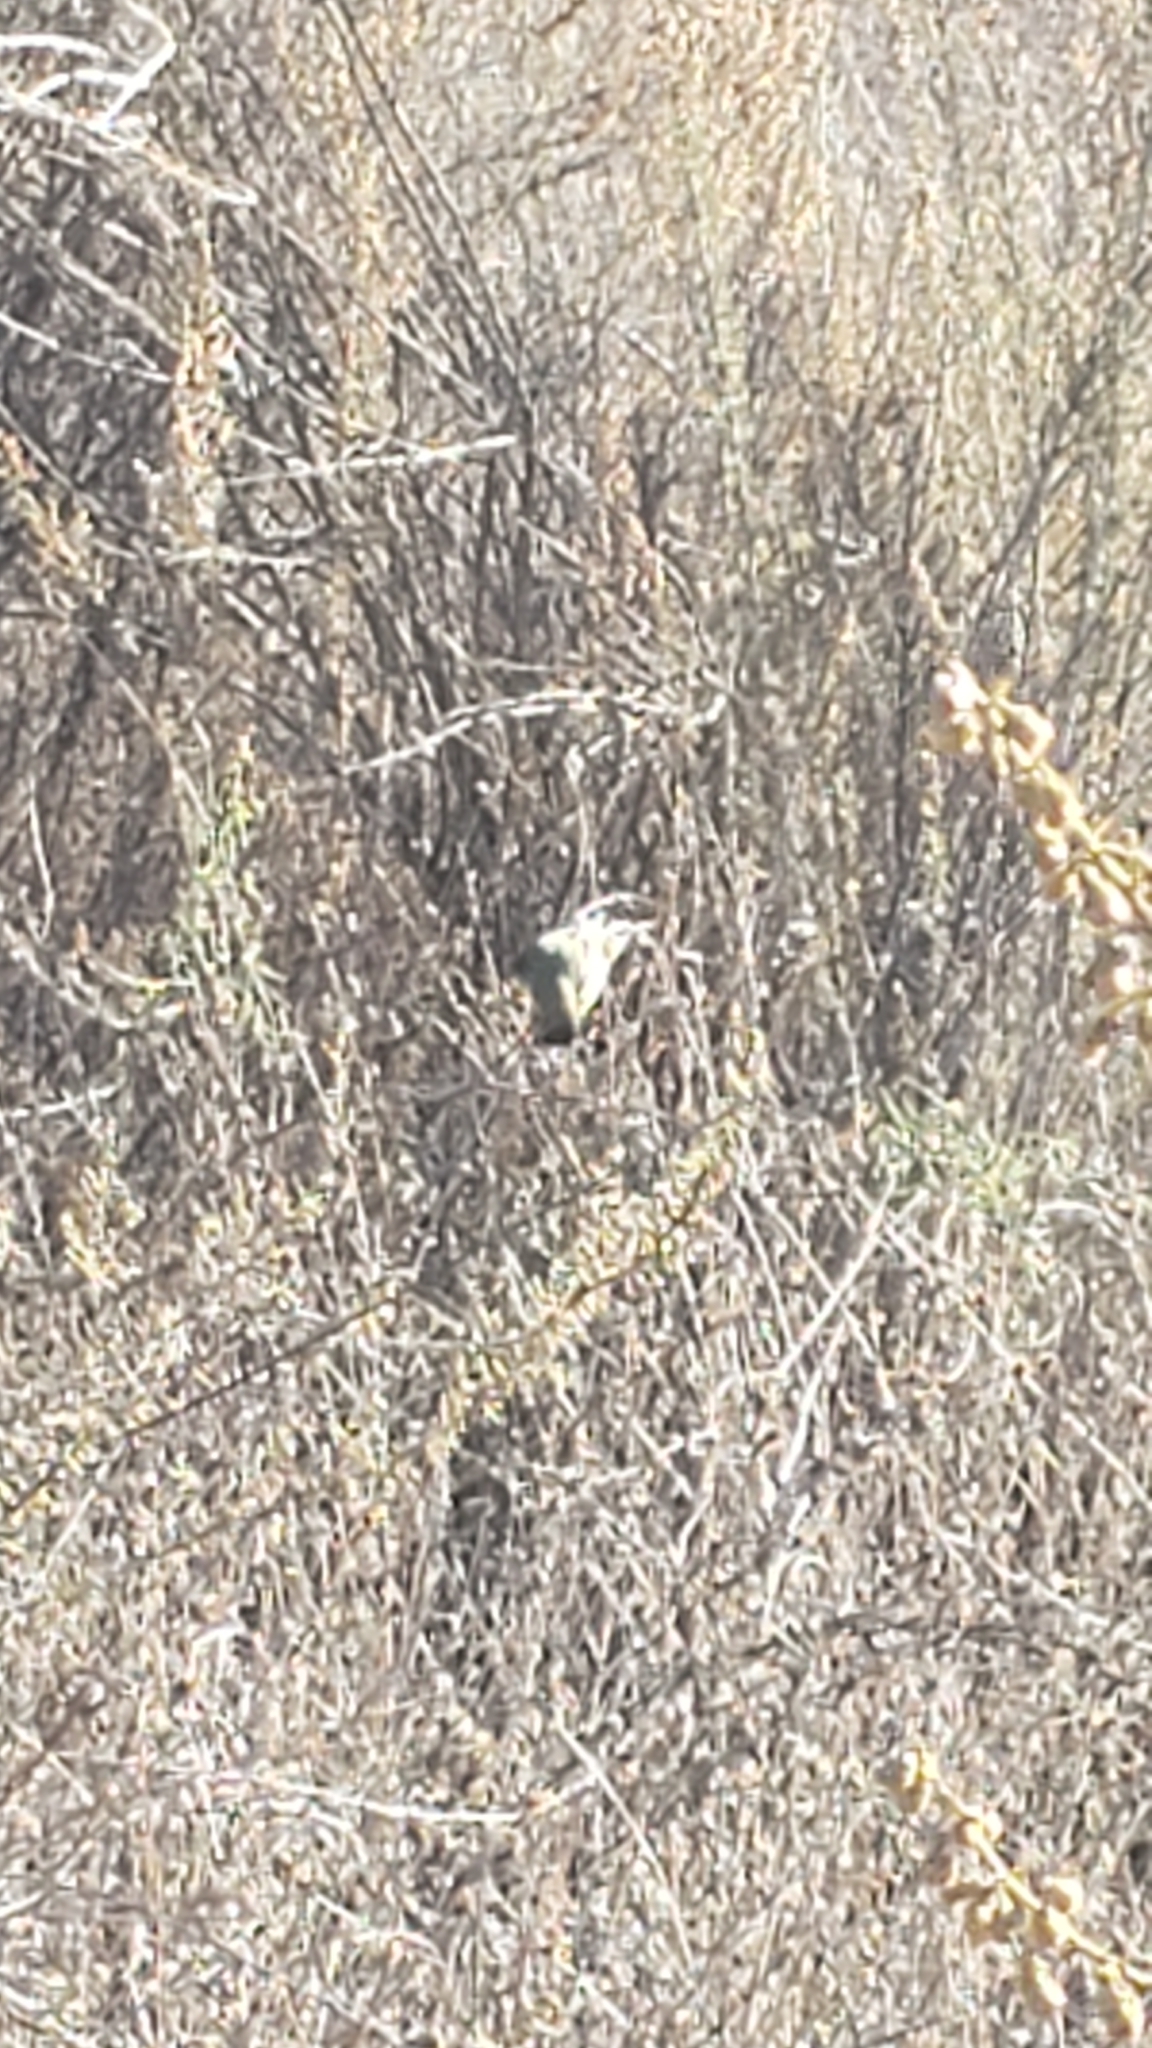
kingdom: Animalia
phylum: Chordata
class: Aves
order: Passeriformes
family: Fringillidae
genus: Spinus
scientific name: Spinus psaltria
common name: Lesser goldfinch
